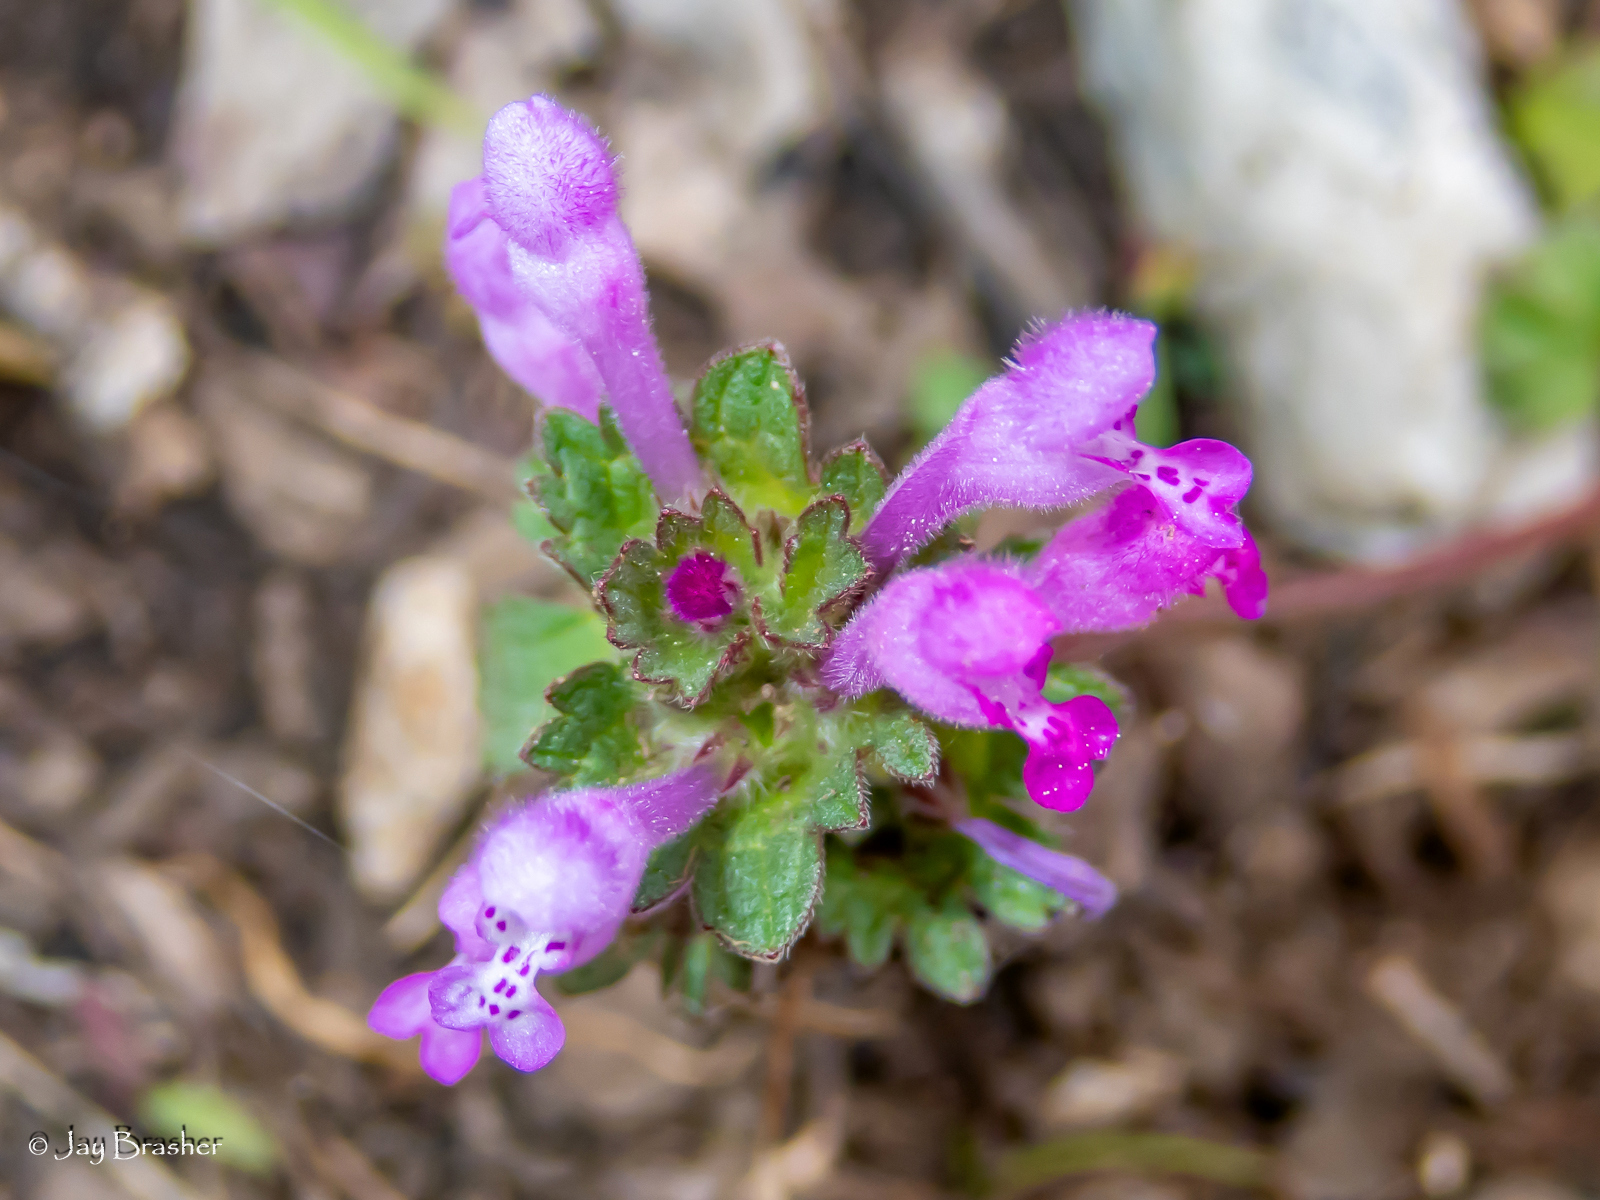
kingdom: Plantae
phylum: Tracheophyta
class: Magnoliopsida
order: Lamiales
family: Lamiaceae
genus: Lamium
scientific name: Lamium amplexicaule
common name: Henbit dead-nettle
